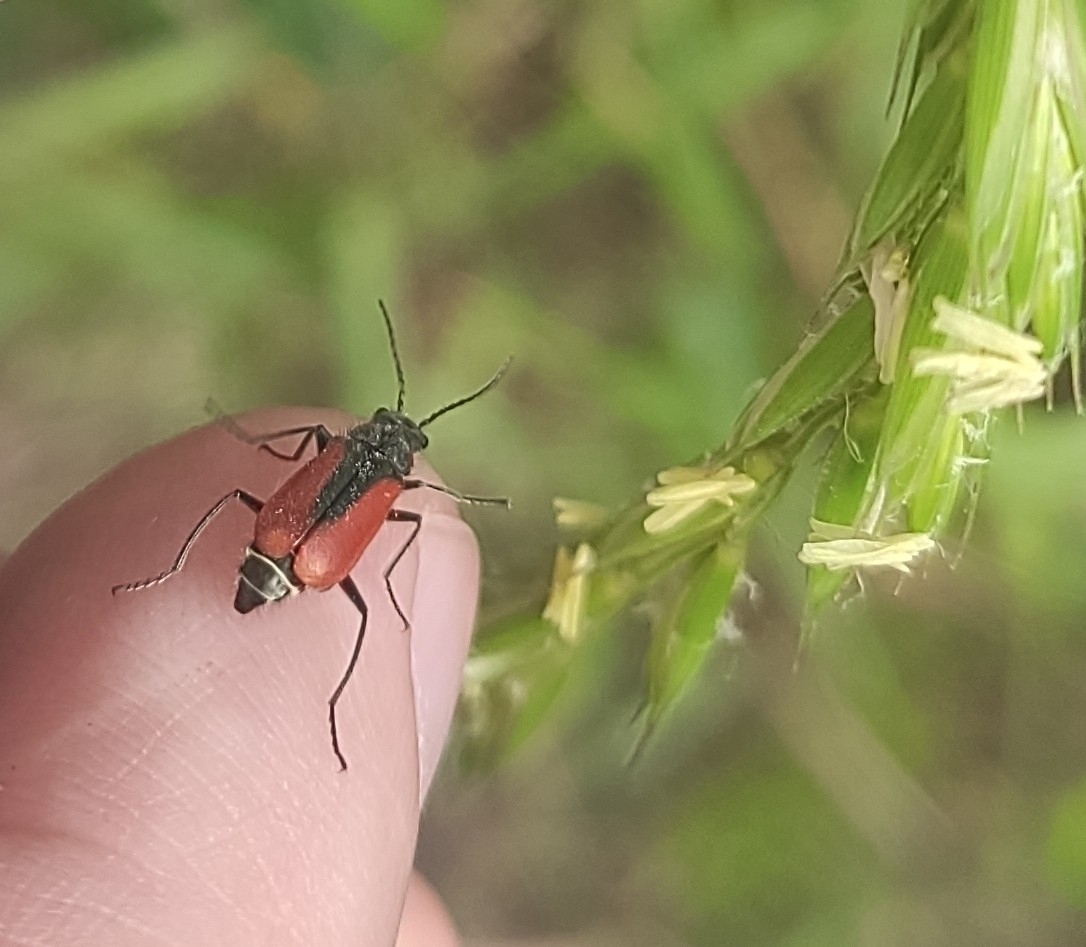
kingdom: Animalia
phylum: Arthropoda
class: Insecta
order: Coleoptera
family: Melyridae
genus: Malachius
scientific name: Malachius aeneus
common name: Scarlet malachite beetle
